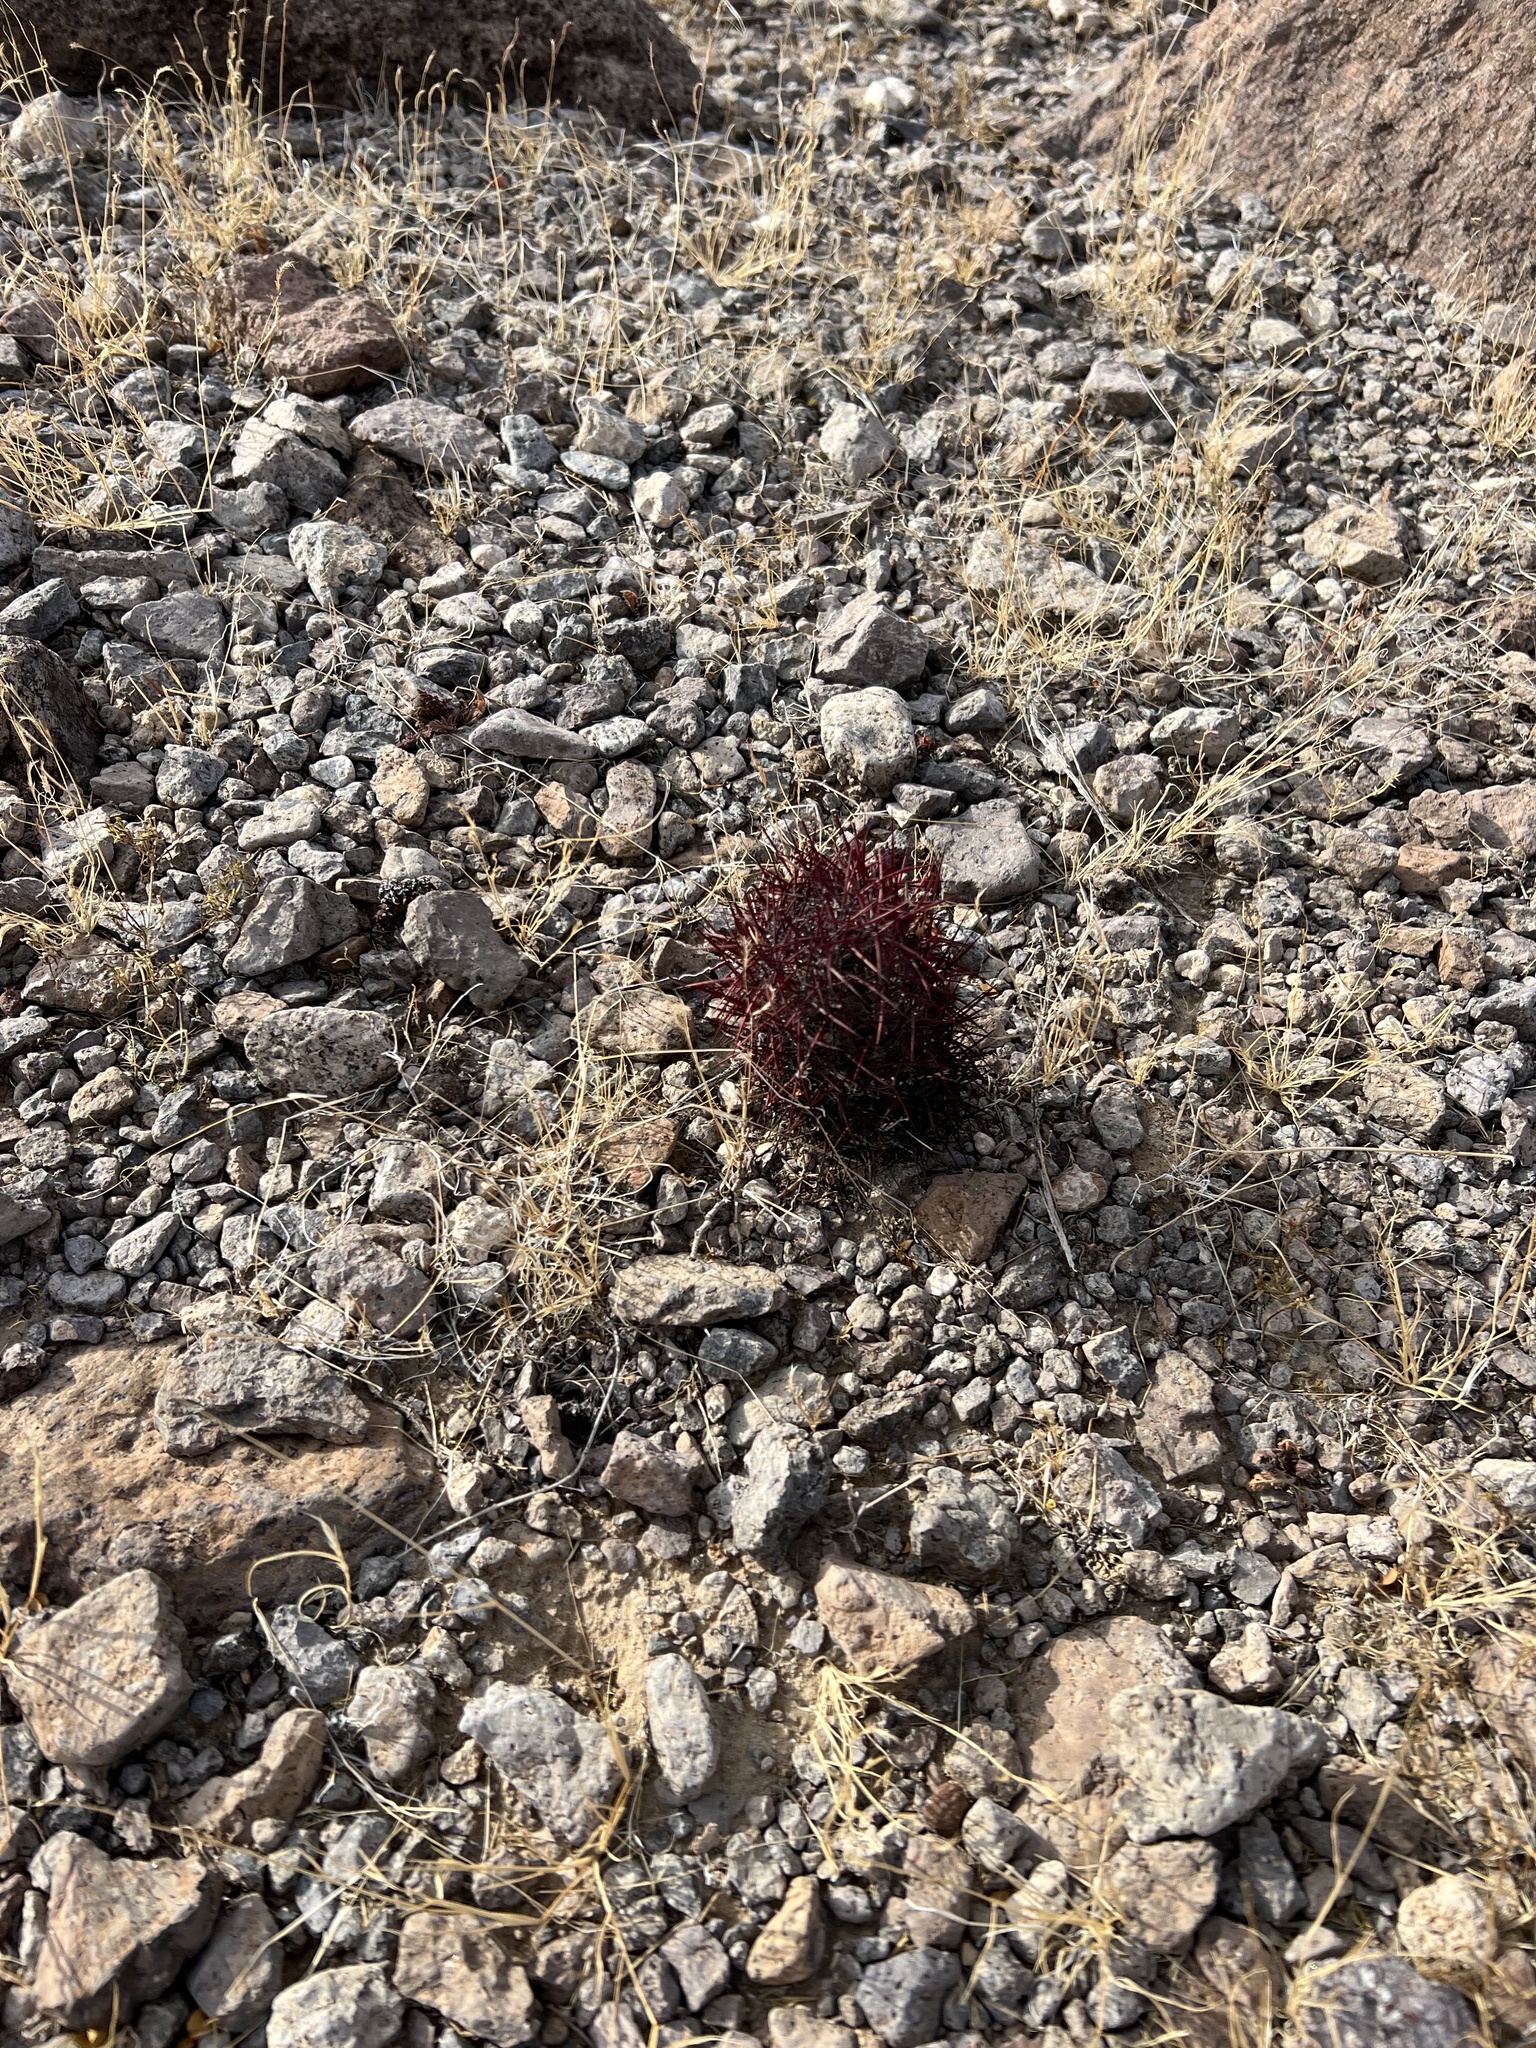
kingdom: Plantae
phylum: Tracheophyta
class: Magnoliopsida
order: Caryophyllales
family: Cactaceae
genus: Sclerocactus
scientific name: Sclerocactus johnsonii
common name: Eight-spine fishhook cactus
